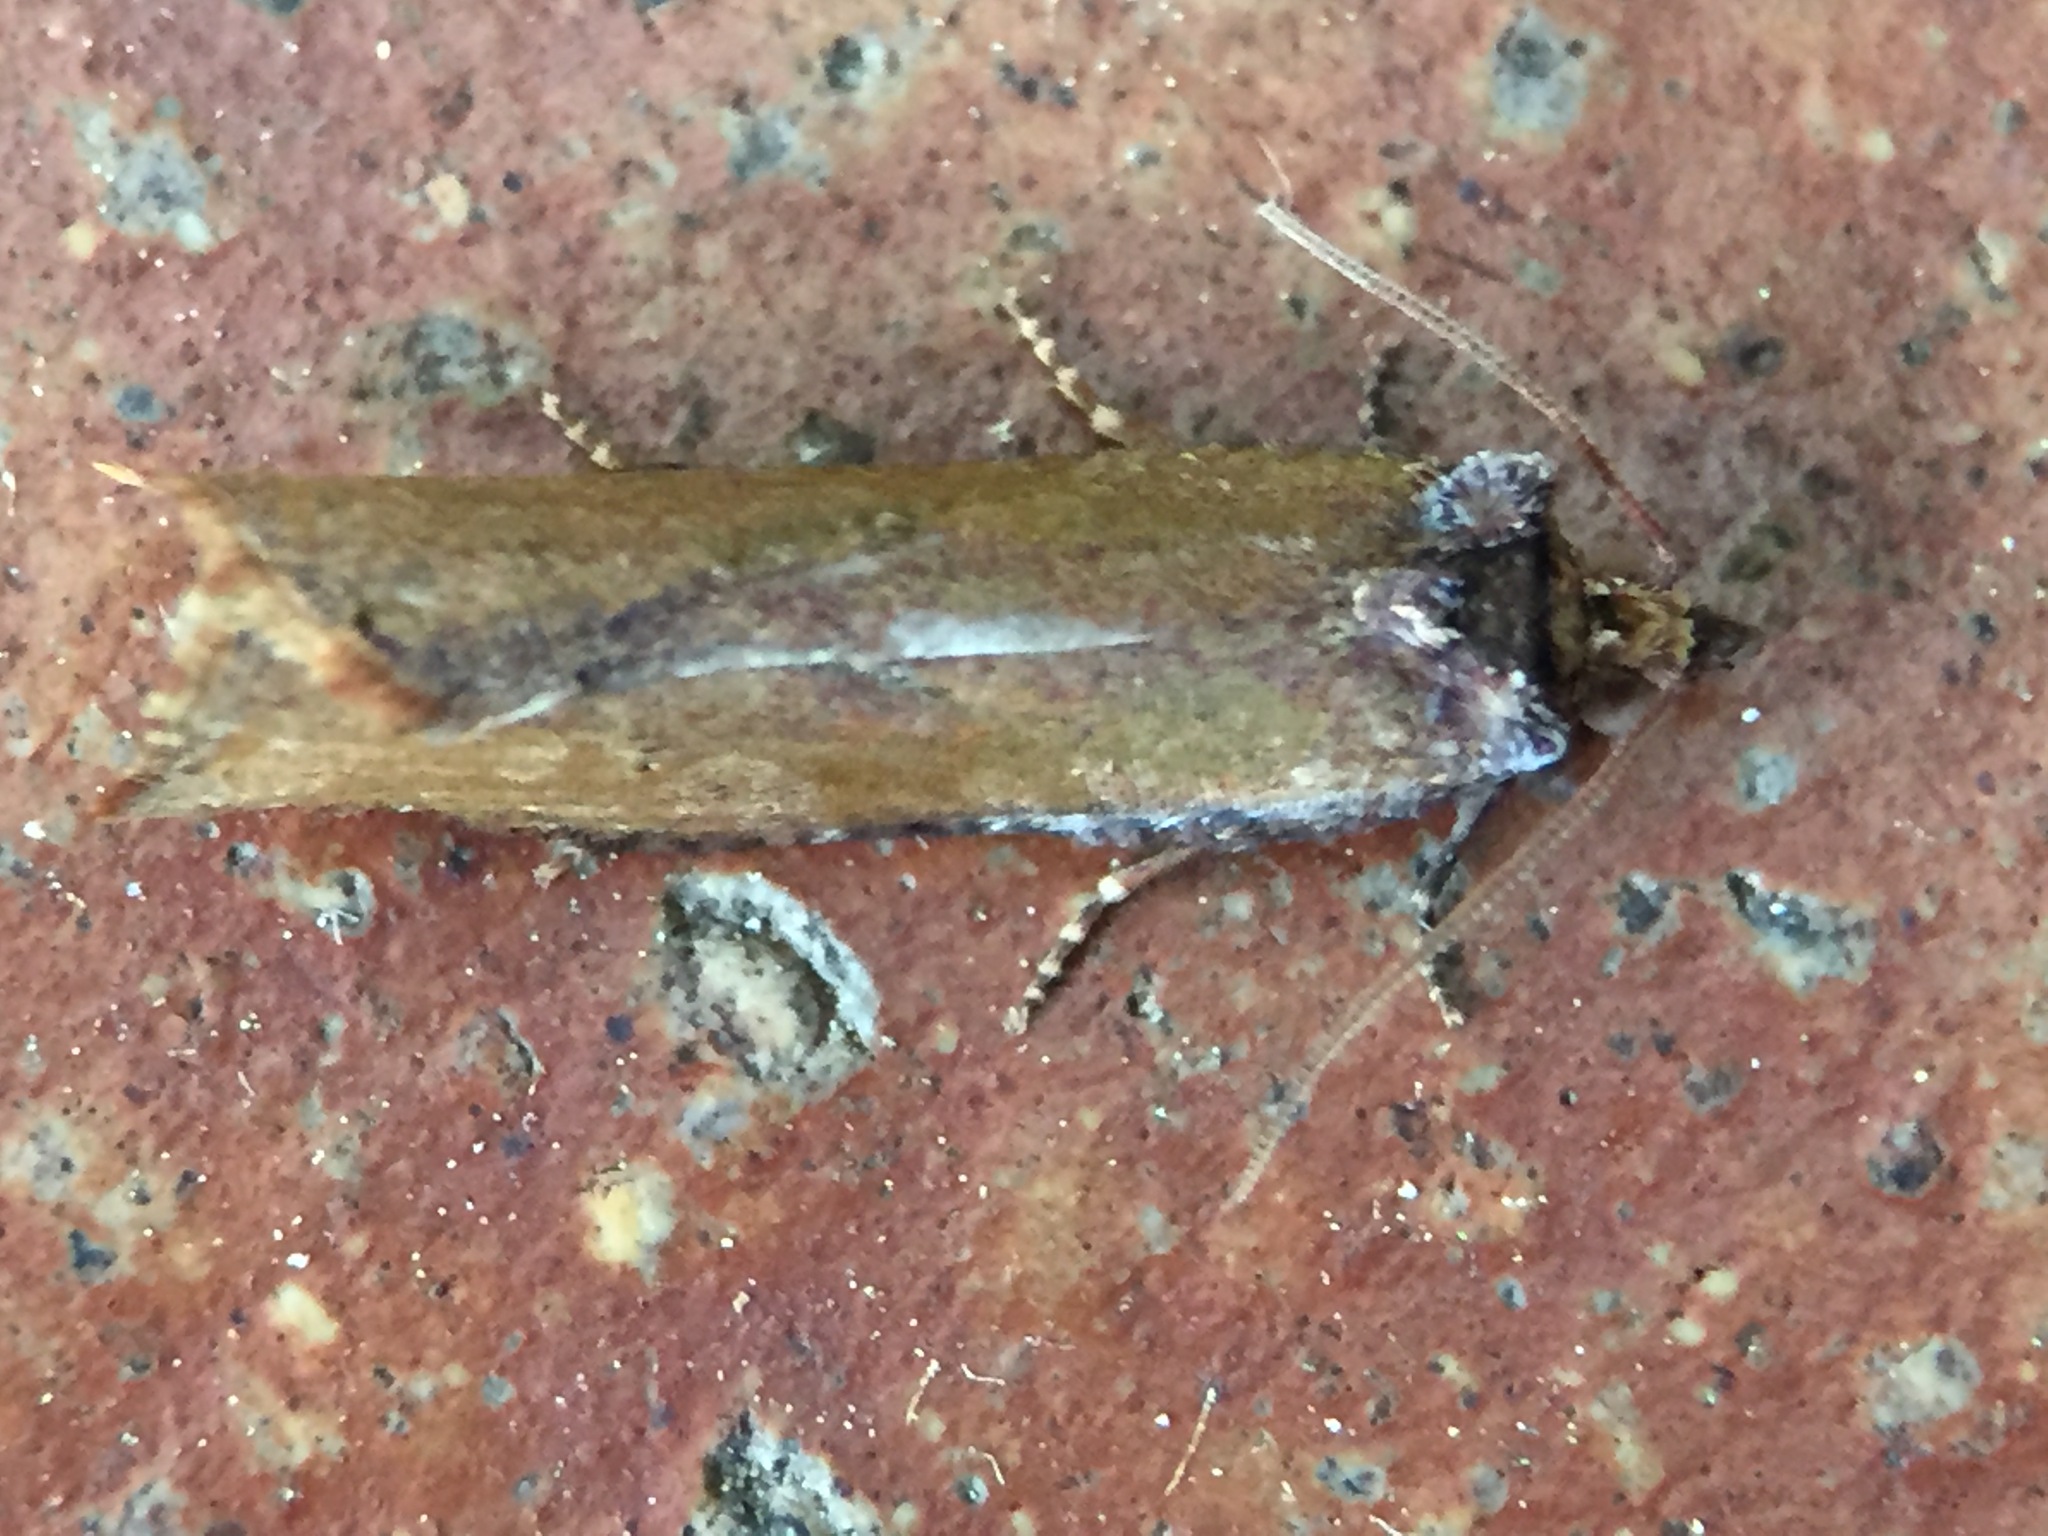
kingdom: Animalia
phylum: Arthropoda
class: Insecta
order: Lepidoptera
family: Tortricidae
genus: Epalxiphora
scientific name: Epalxiphora axenana
